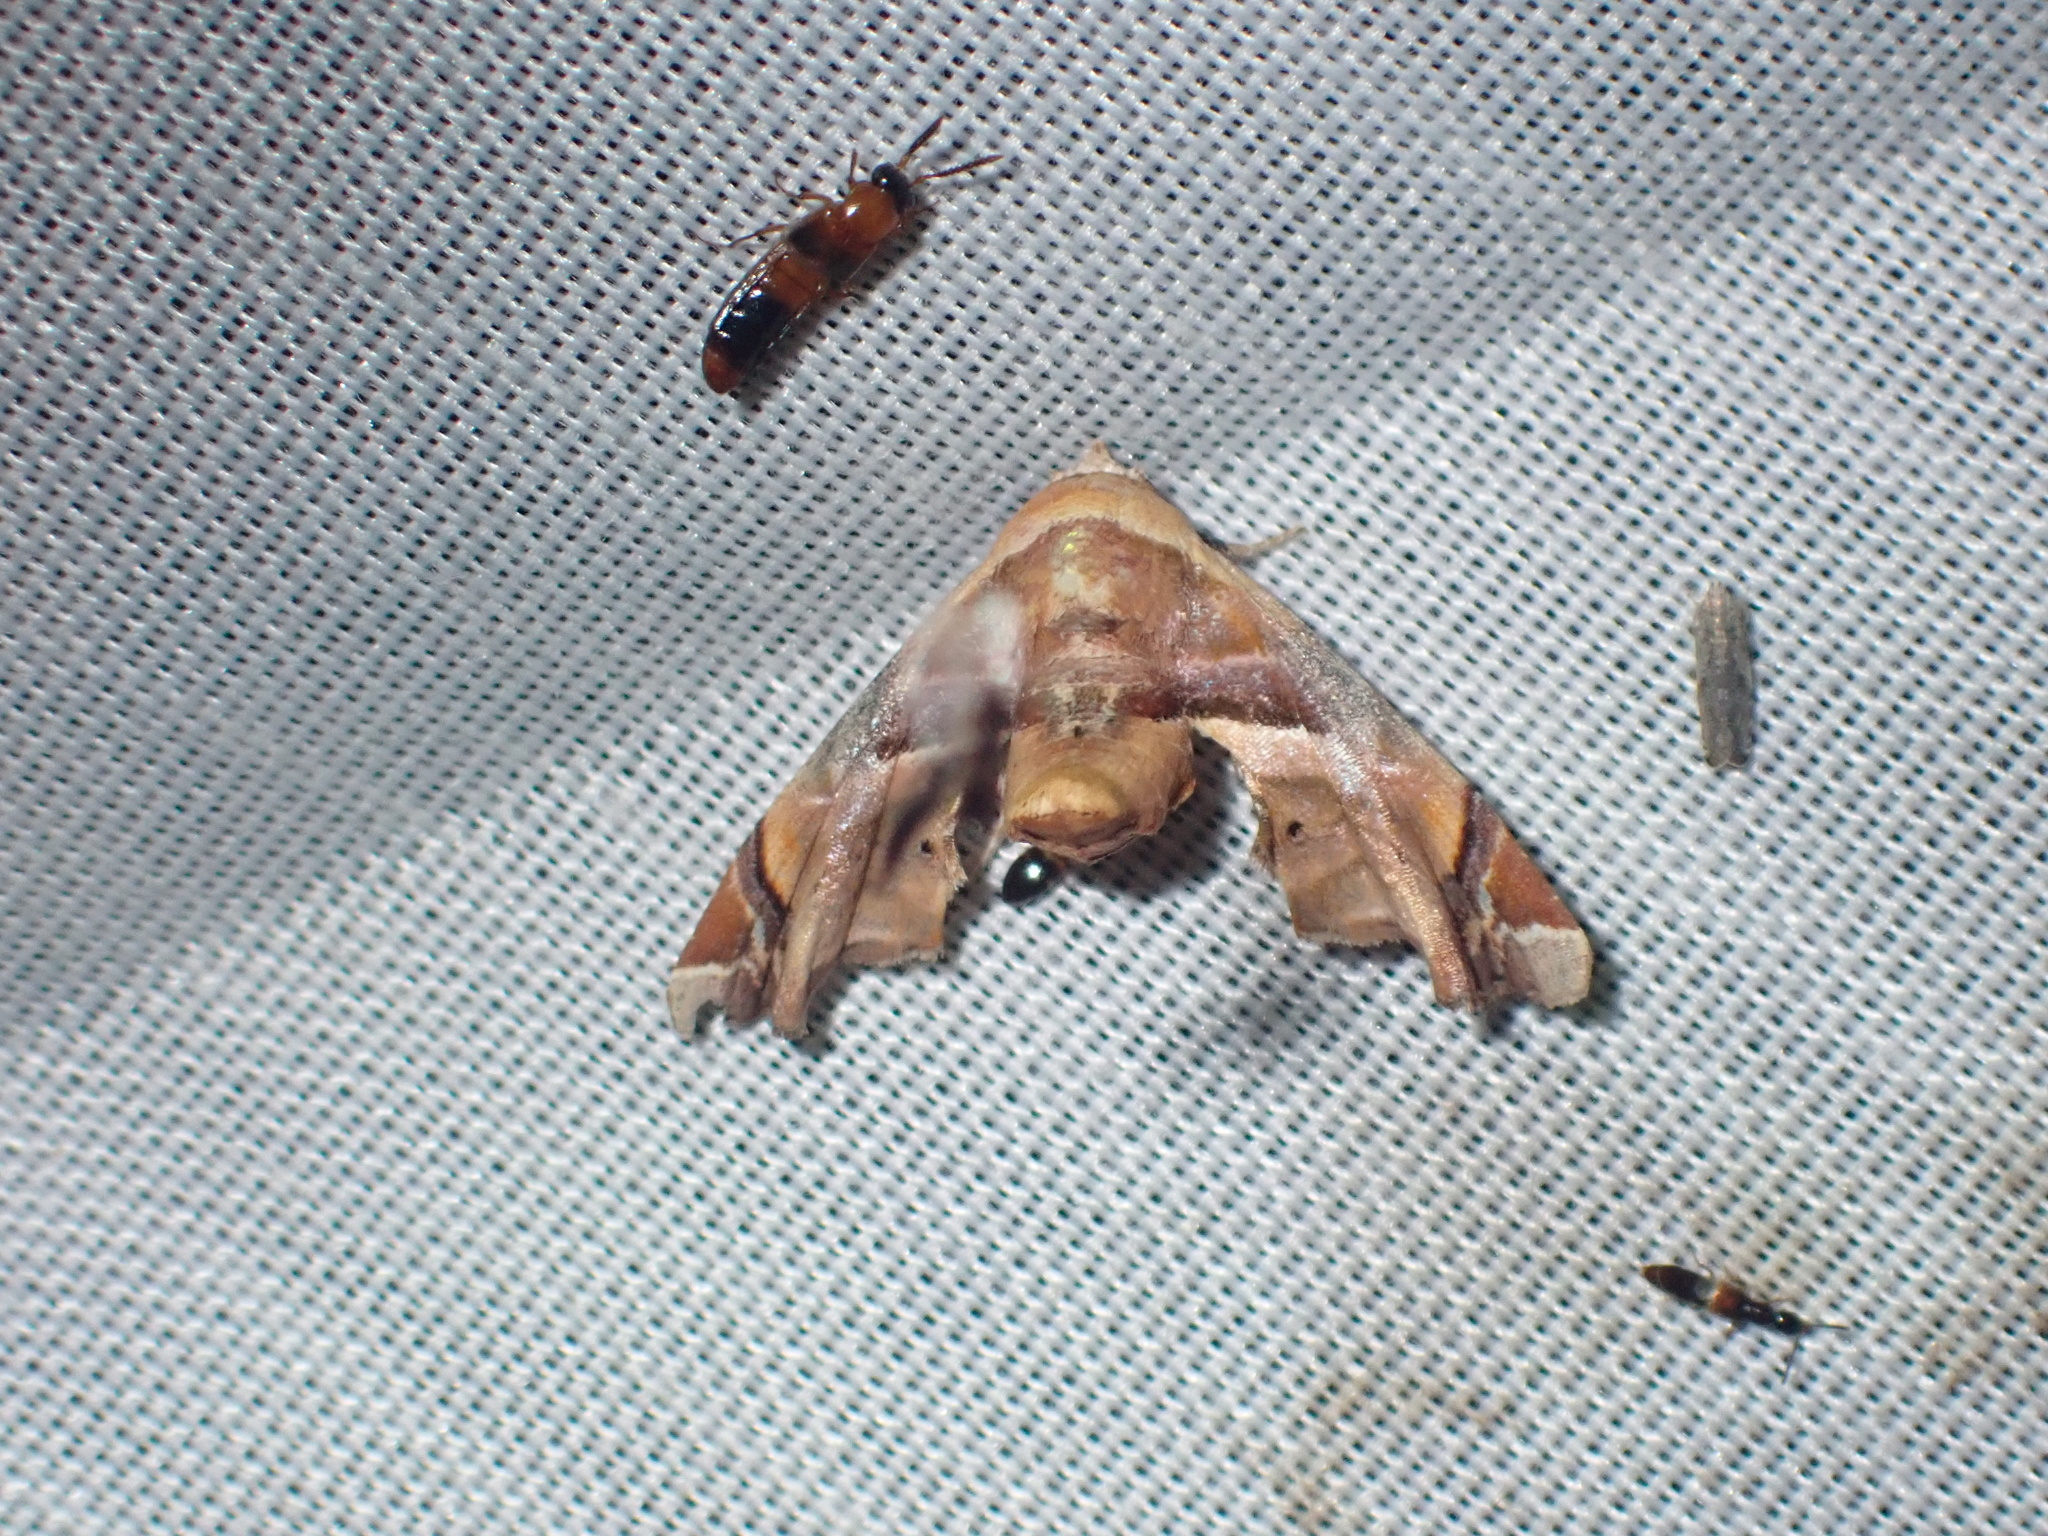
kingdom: Animalia
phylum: Arthropoda
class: Insecta
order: Lepidoptera
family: Euteliidae
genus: Eutelia
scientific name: Eutelia gilvicolor
